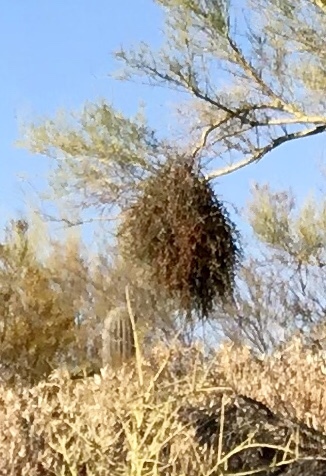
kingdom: Plantae
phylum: Tracheophyta
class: Magnoliopsida
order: Santalales
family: Viscaceae
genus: Phoradendron
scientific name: Phoradendron californicum
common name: Acacia mistletoe
